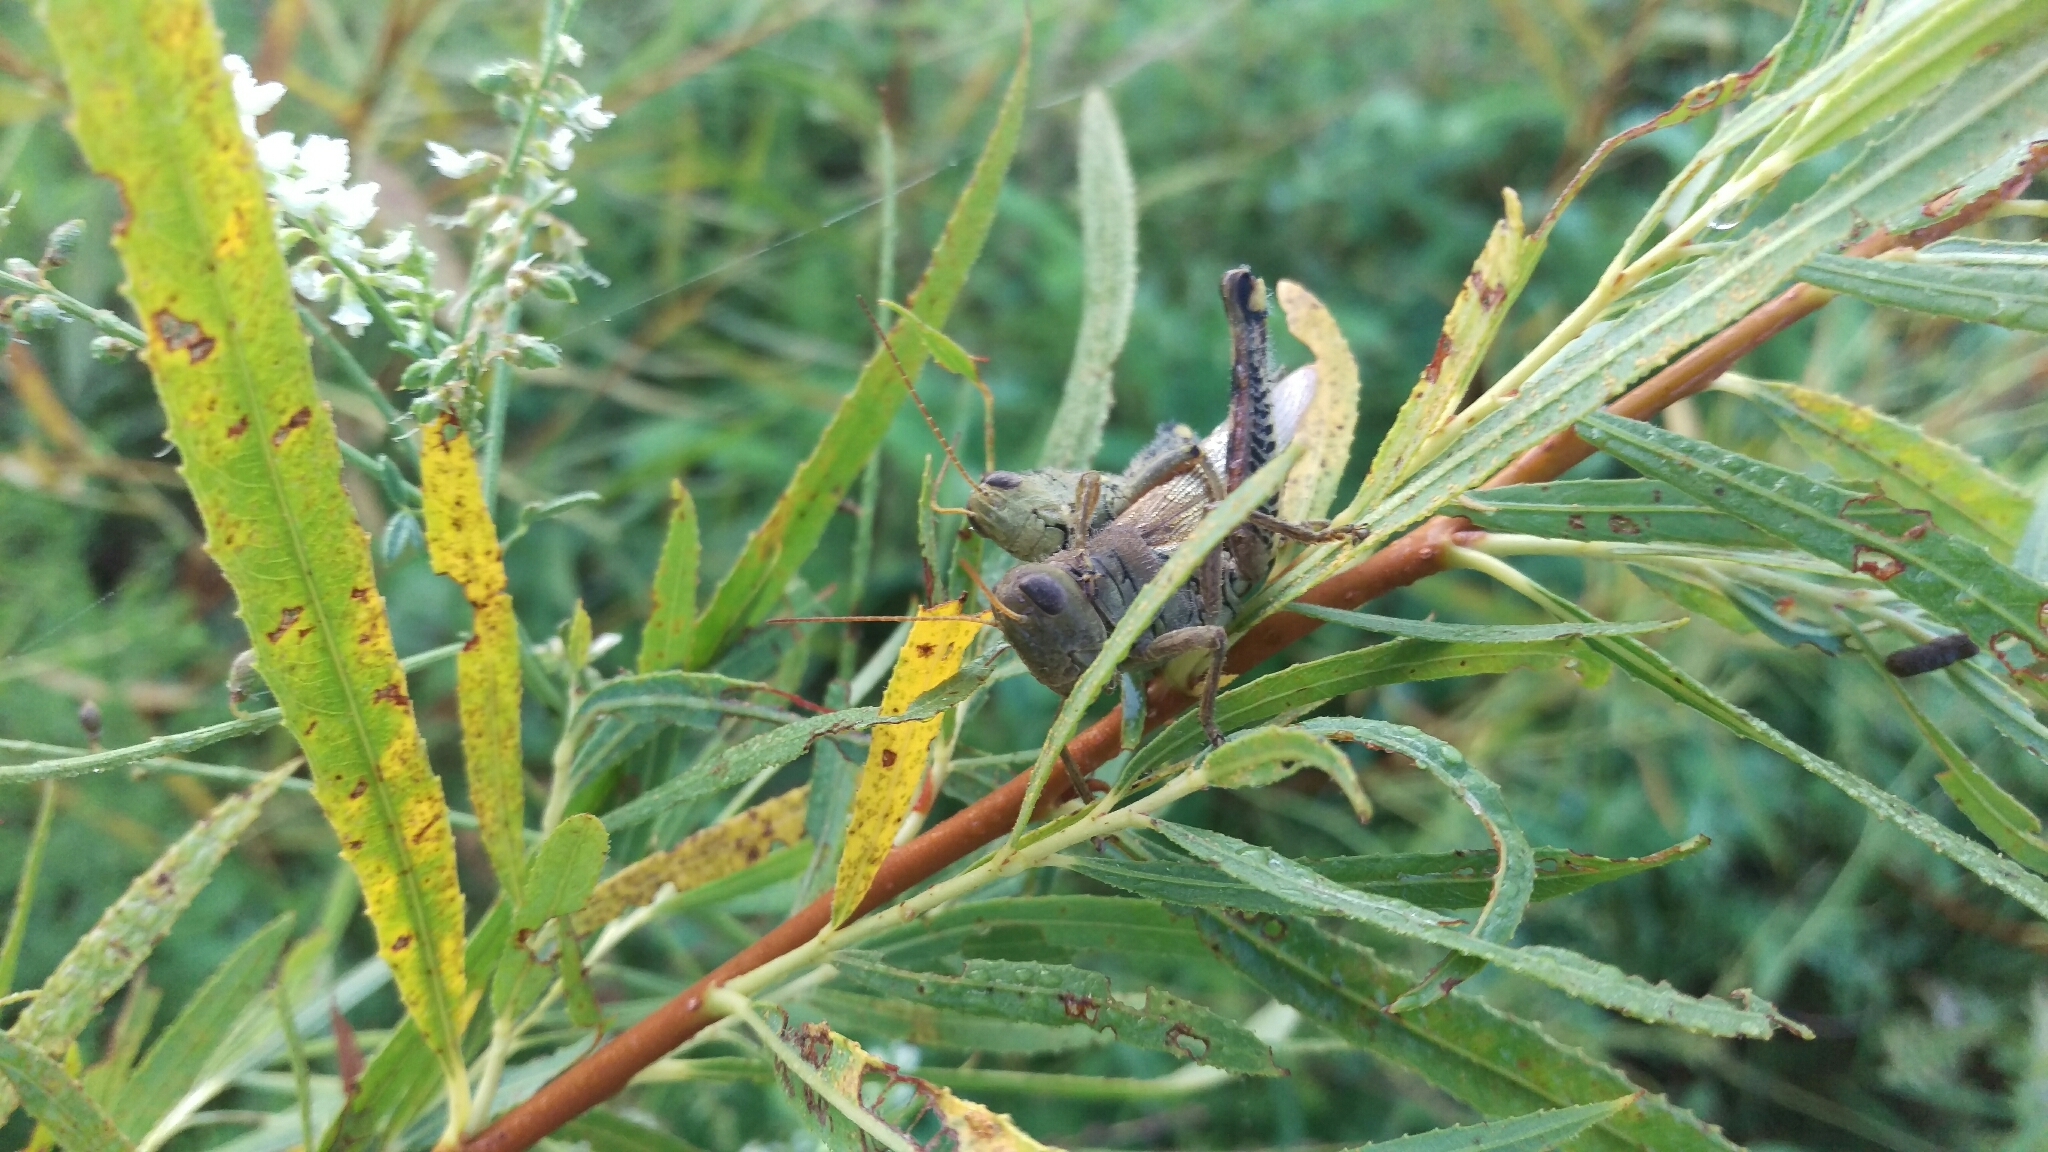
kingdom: Animalia
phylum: Arthropoda
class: Insecta
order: Orthoptera
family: Acrididae
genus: Melanoplus
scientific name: Melanoplus differentialis
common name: Differential grasshopper
